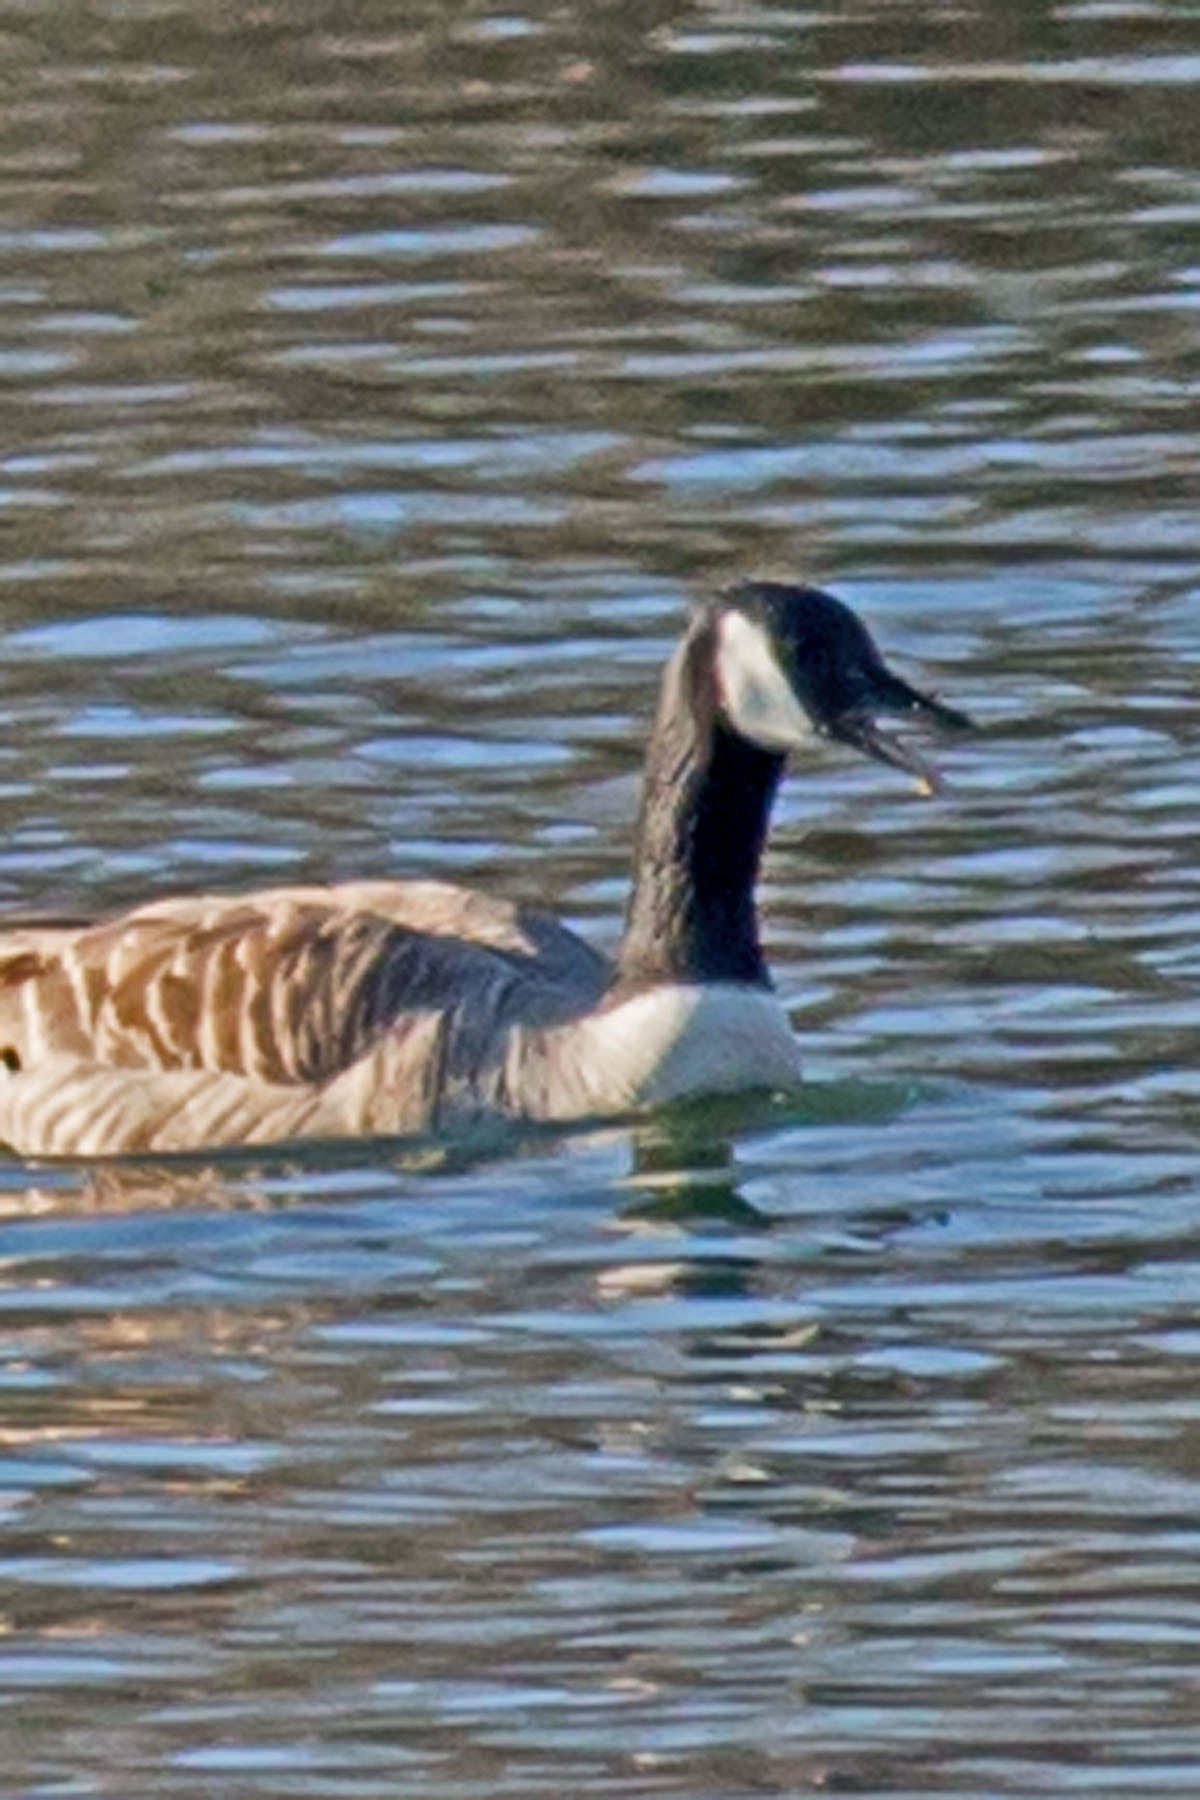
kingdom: Animalia
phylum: Chordata
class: Aves
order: Anseriformes
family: Anatidae
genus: Branta
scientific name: Branta canadensis
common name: Canada goose
